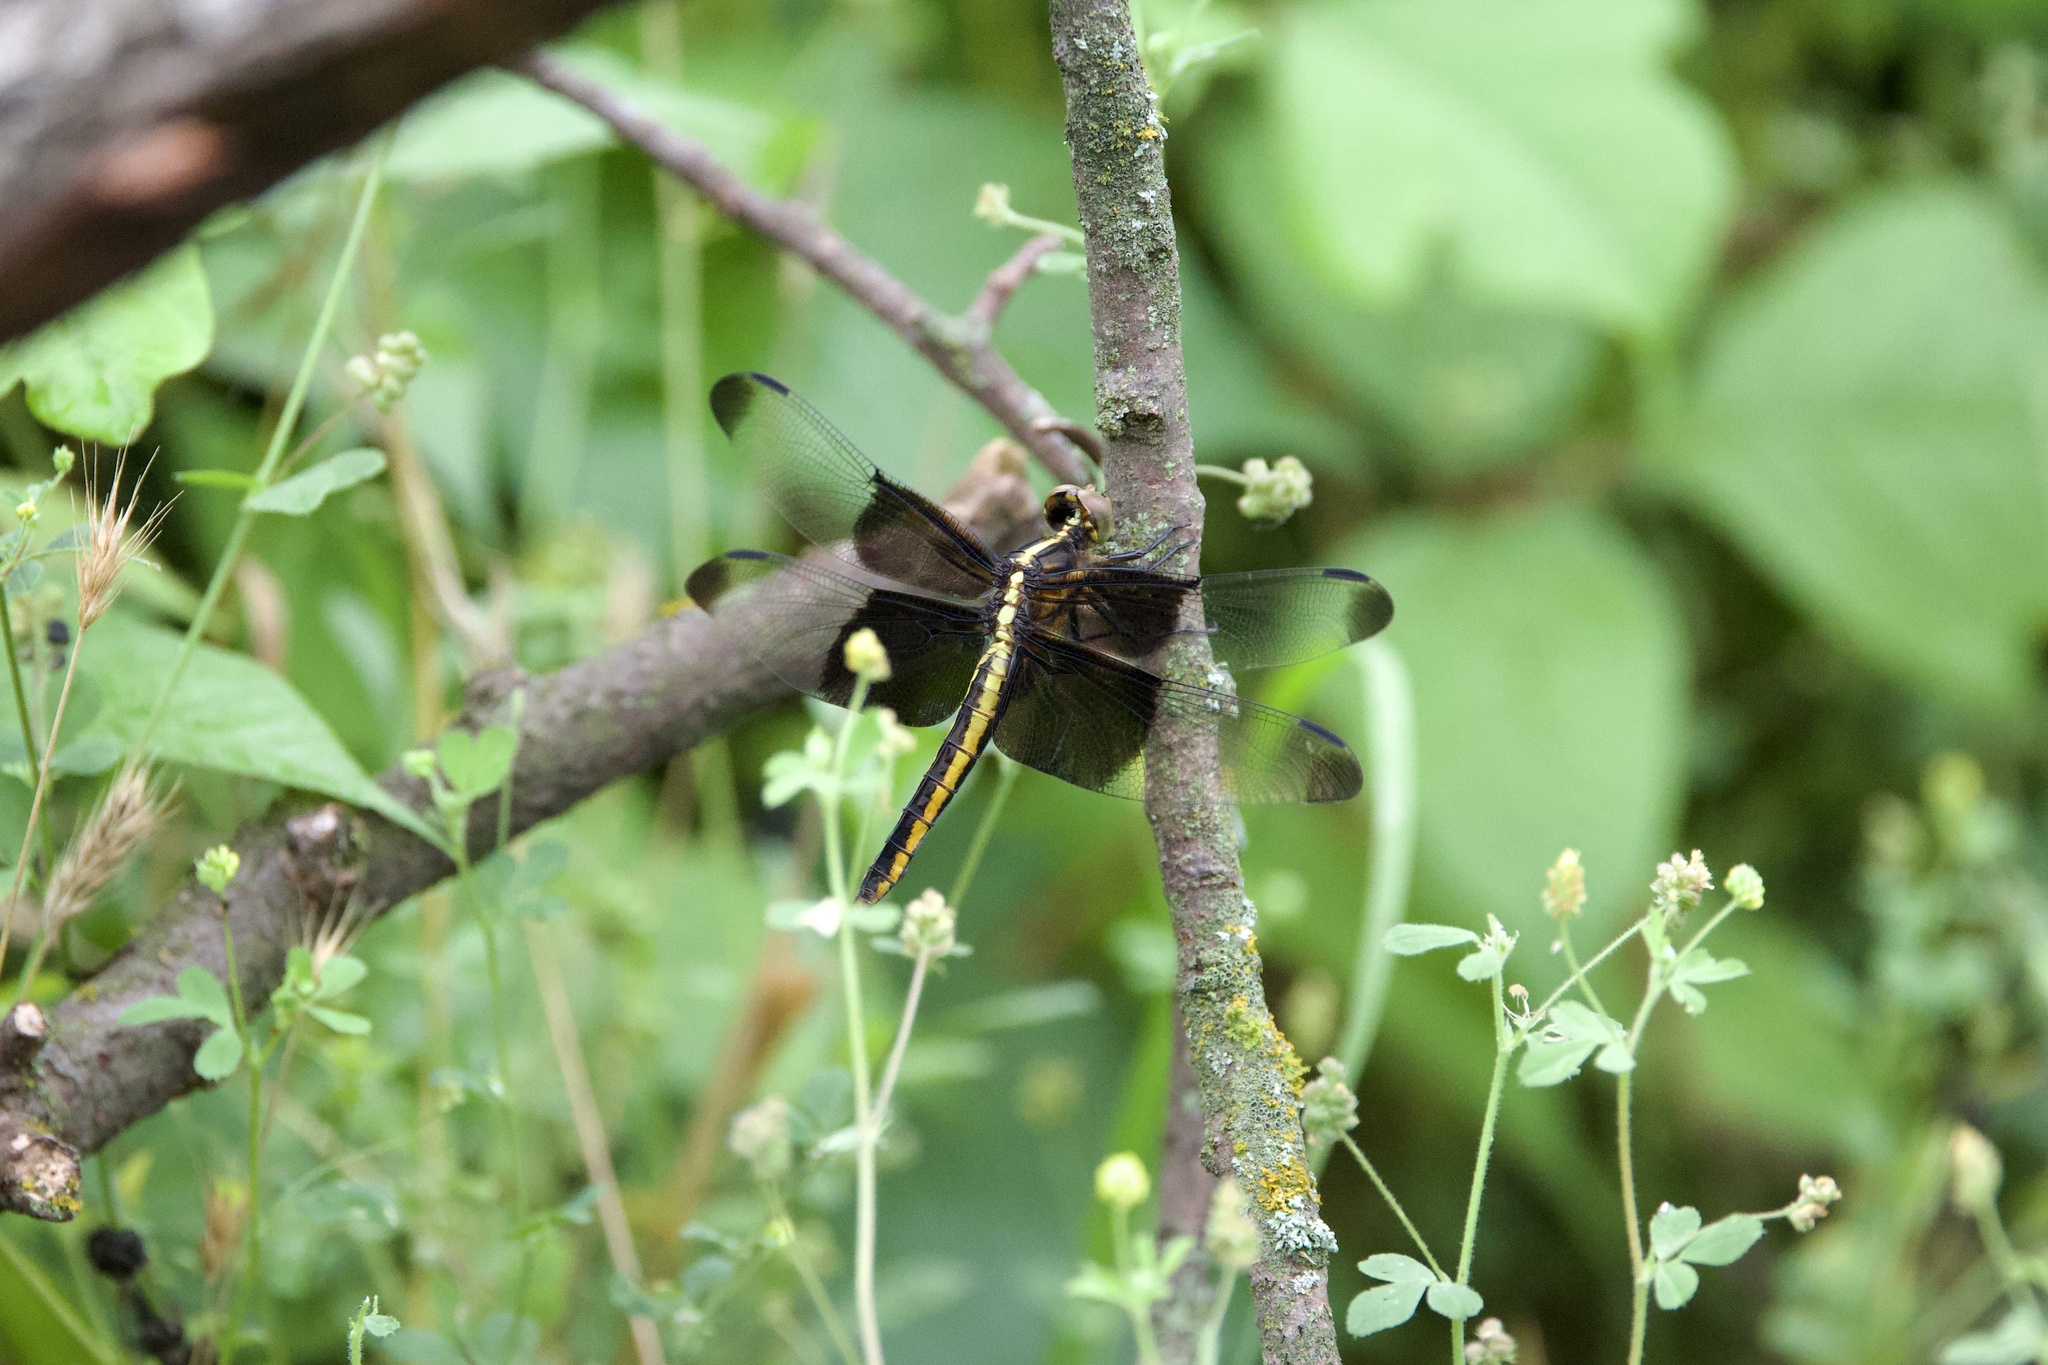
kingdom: Animalia
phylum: Arthropoda
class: Insecta
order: Odonata
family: Libellulidae
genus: Libellula
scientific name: Libellula luctuosa
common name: Widow skimmer
